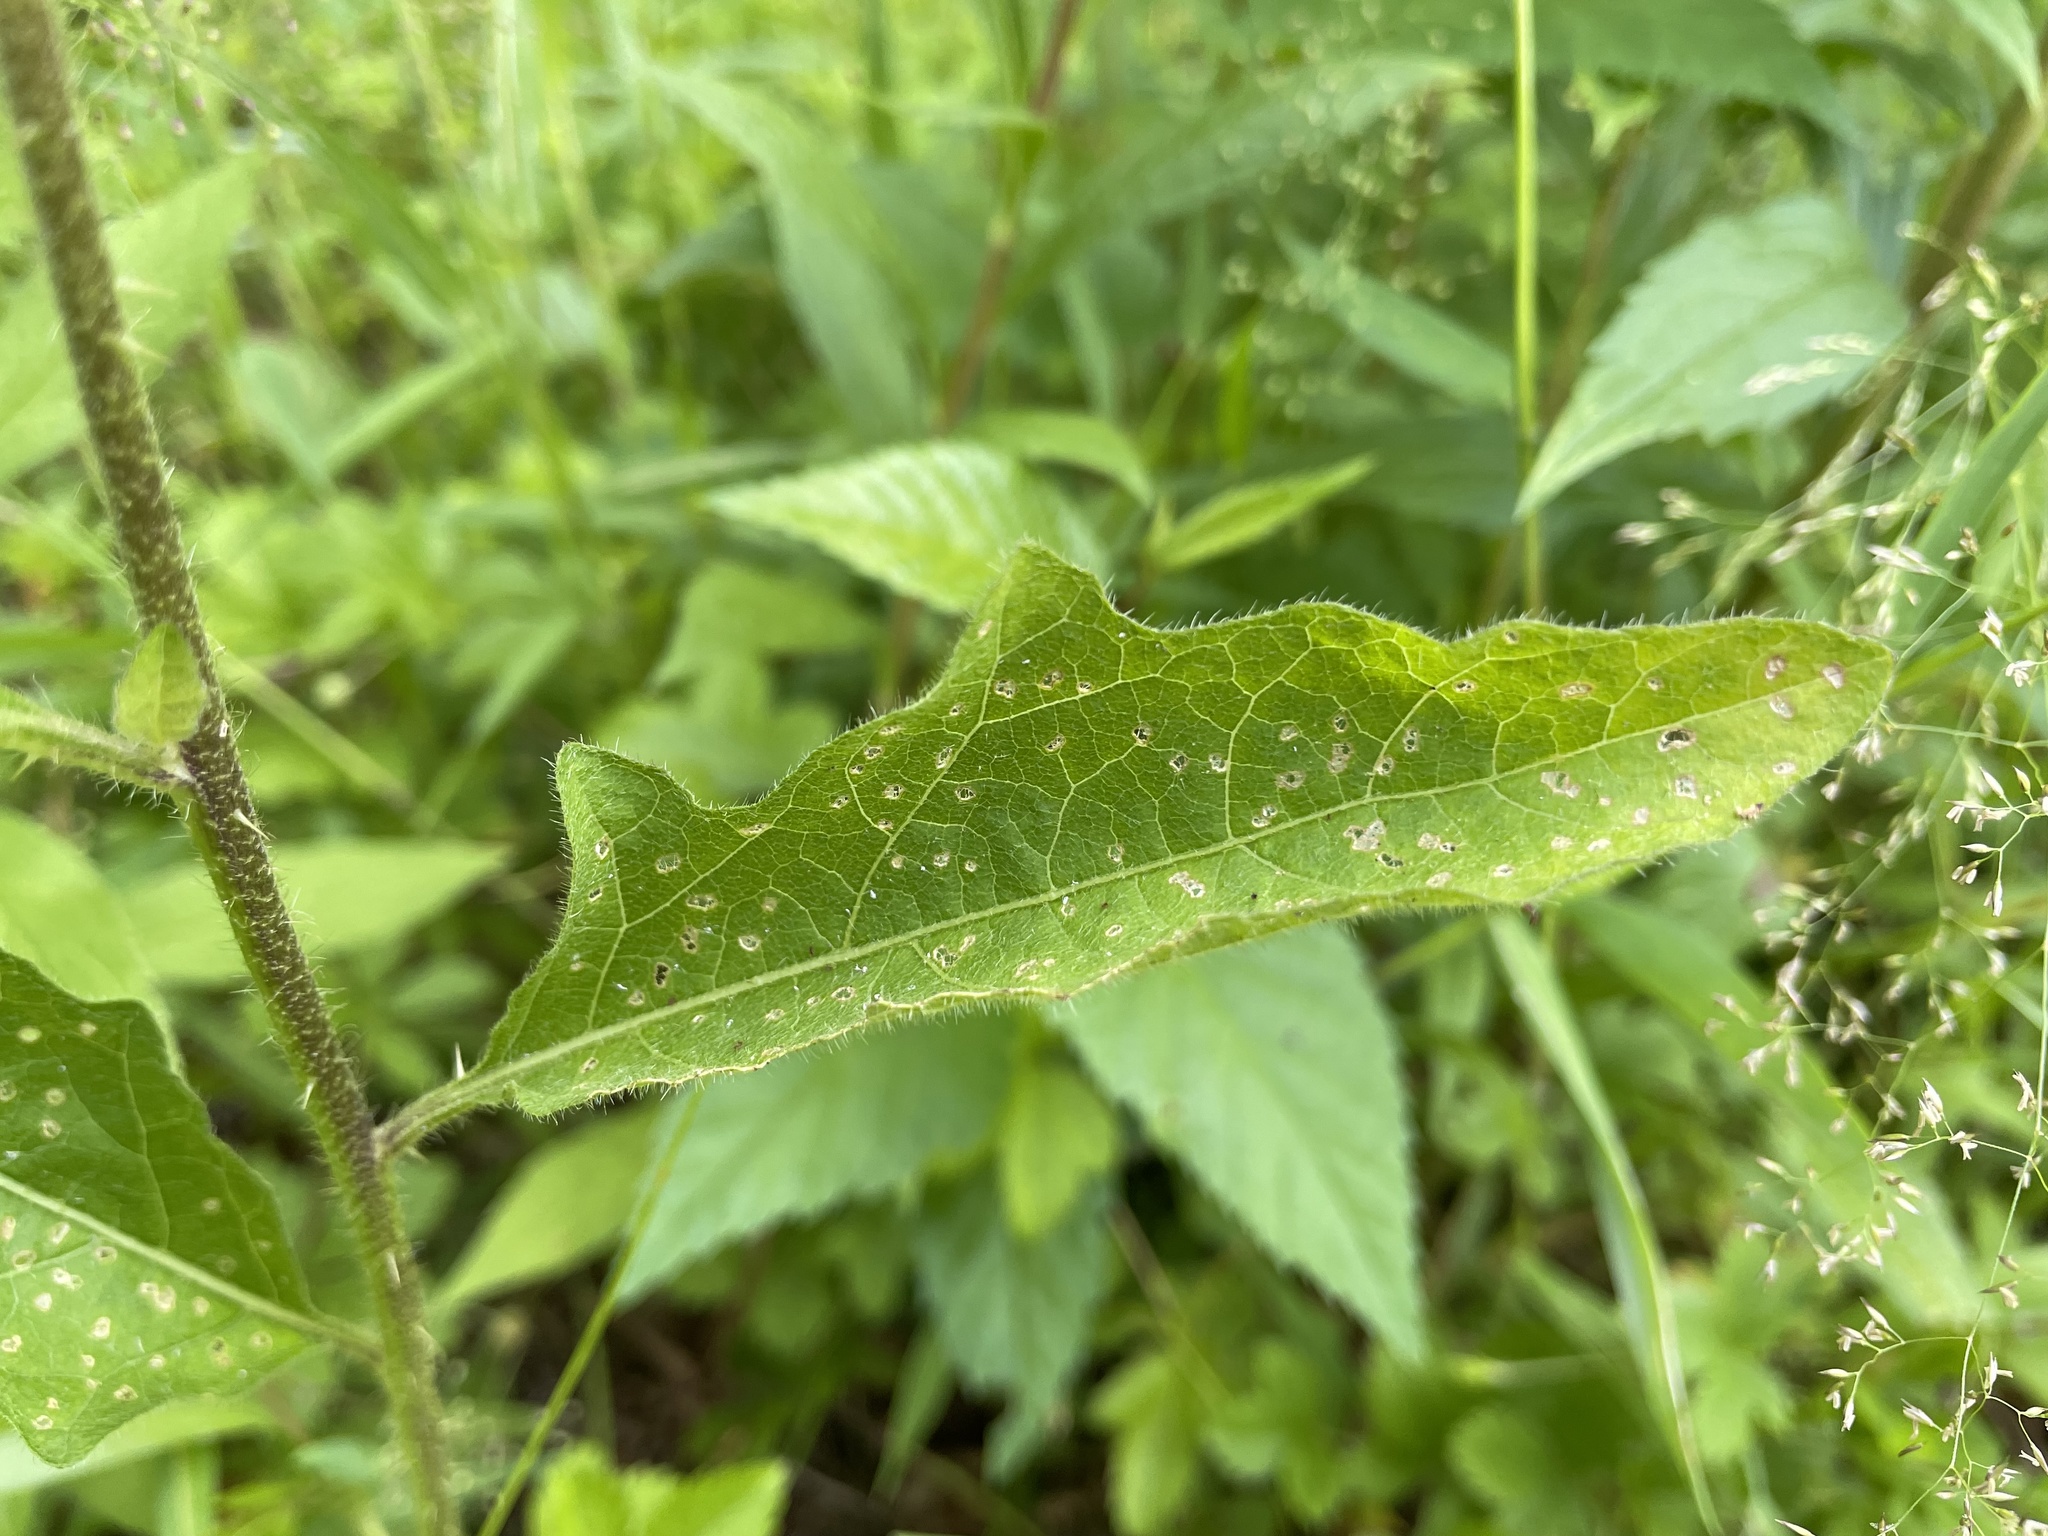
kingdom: Plantae
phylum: Tracheophyta
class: Magnoliopsida
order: Solanales
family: Solanaceae
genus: Solanum
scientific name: Solanum carolinense
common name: Horse-nettle
